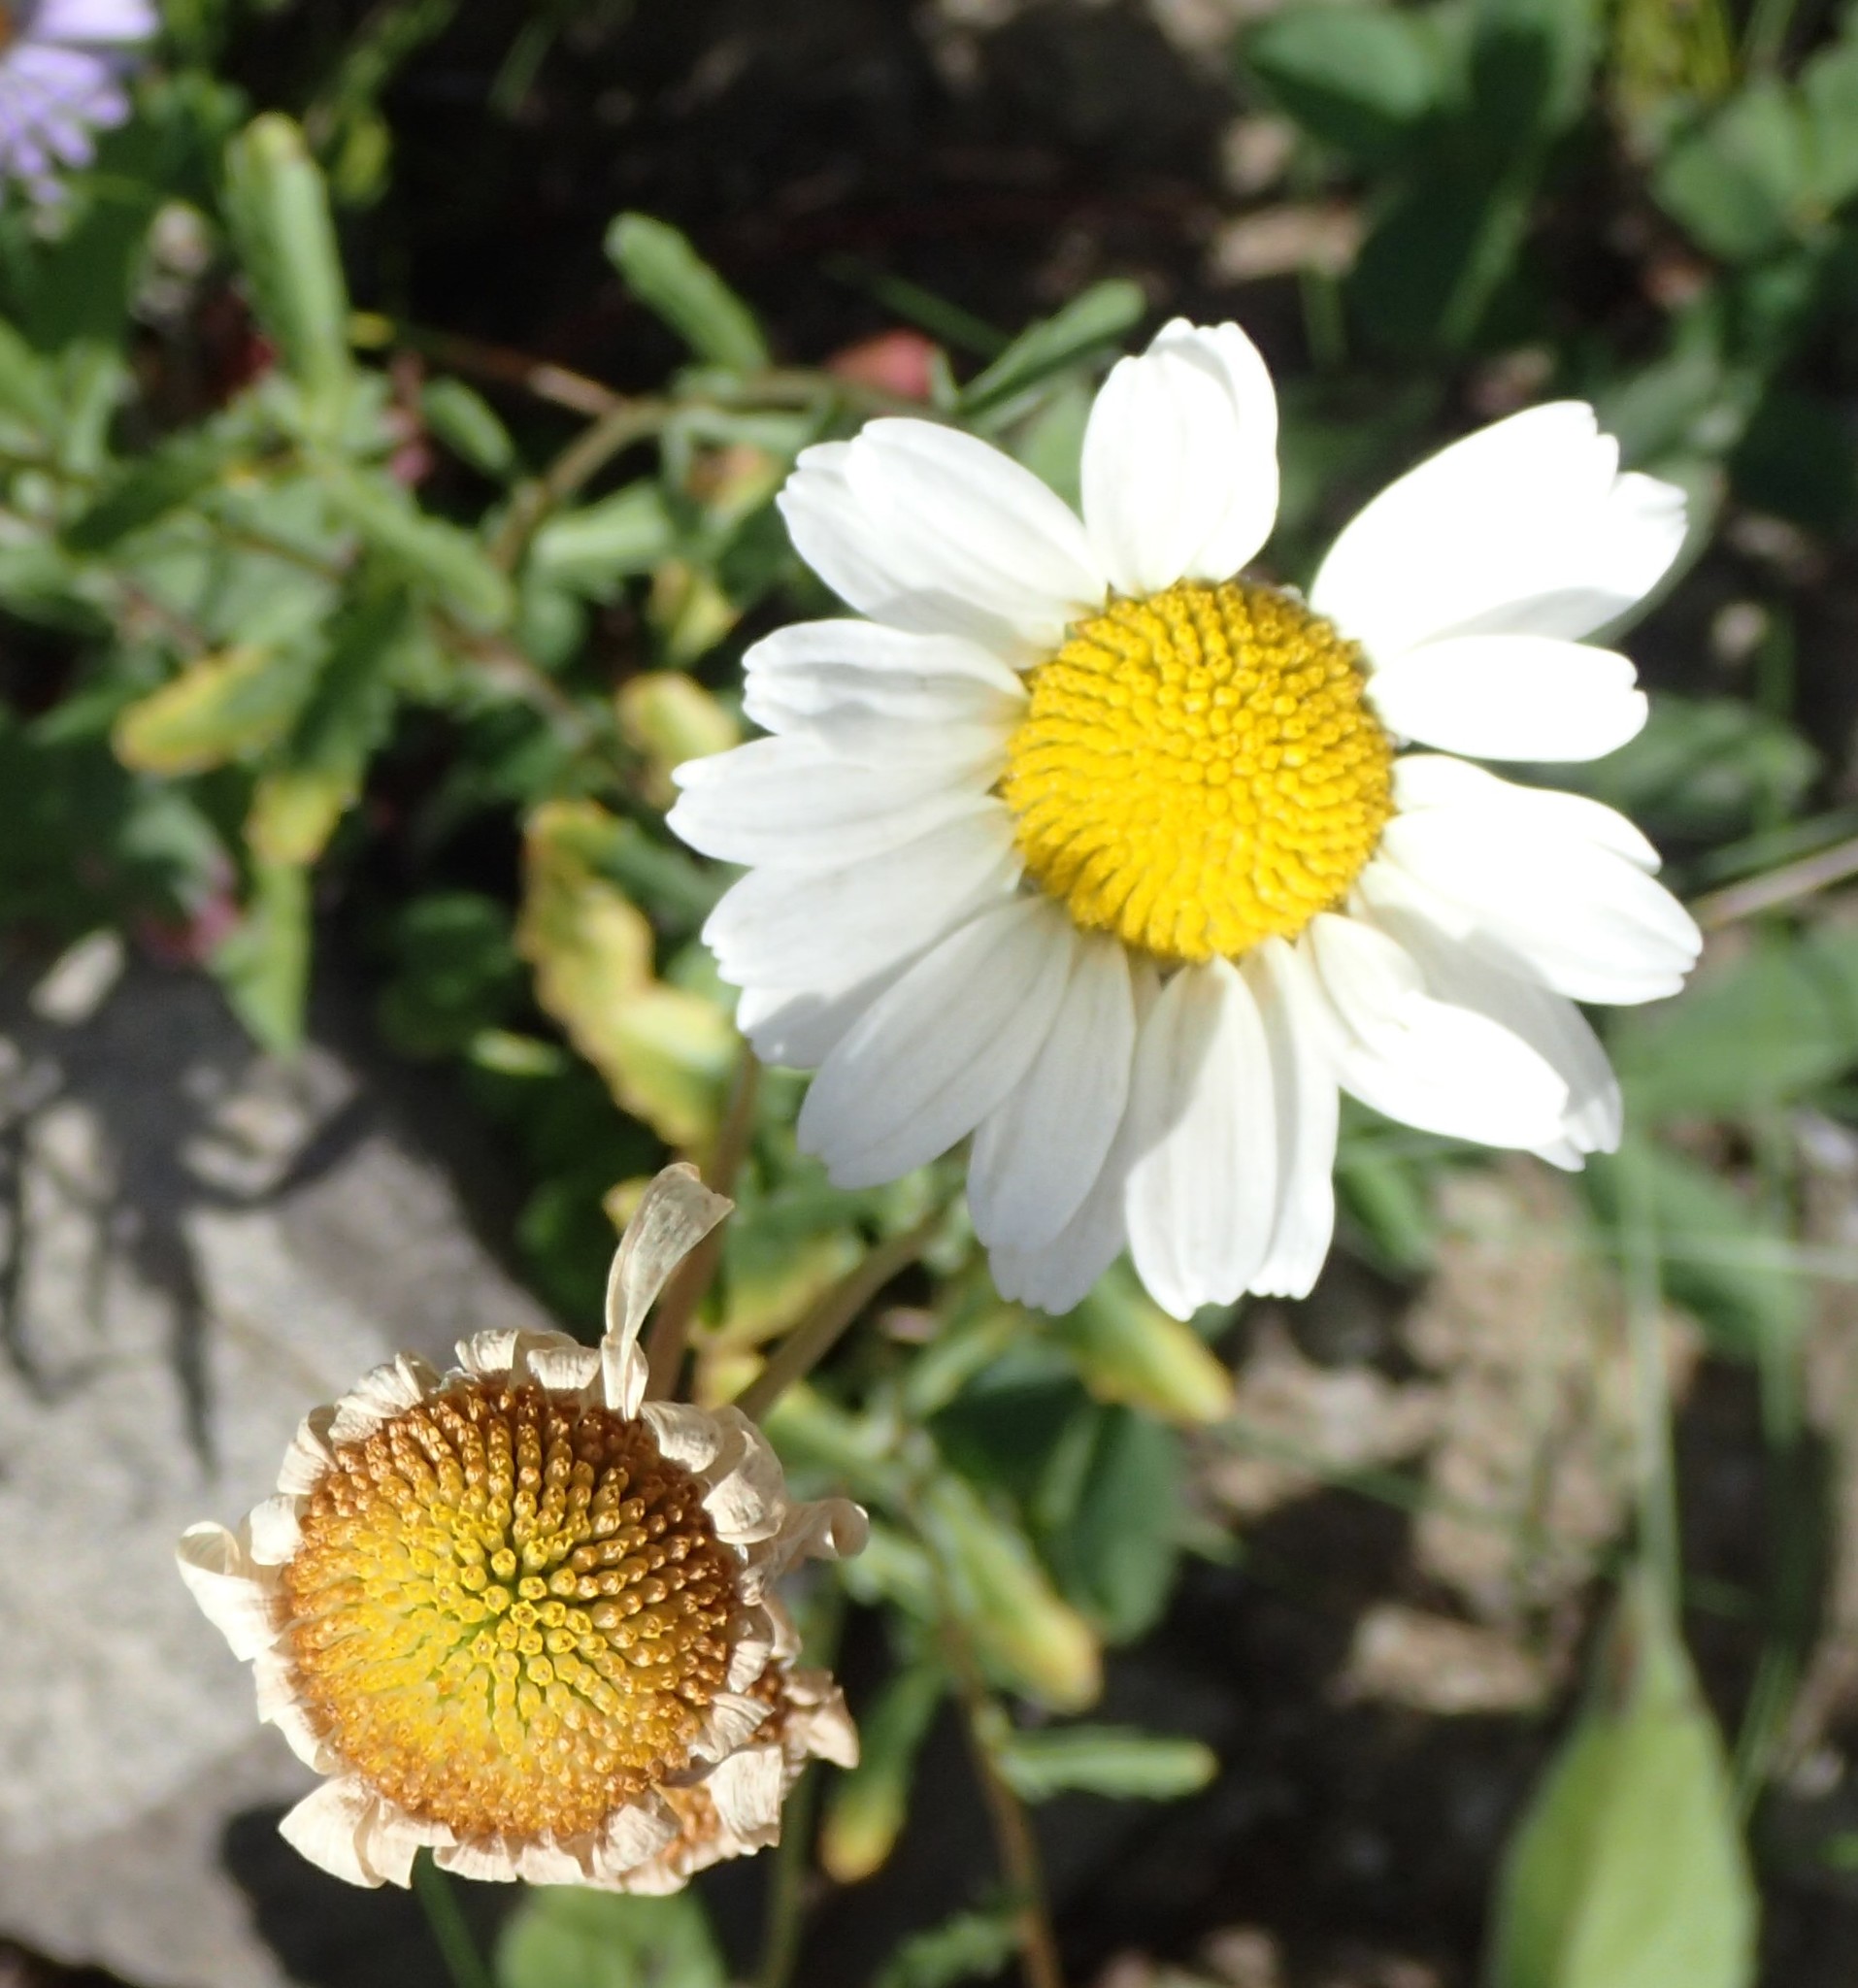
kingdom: Plantae
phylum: Tracheophyta
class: Magnoliopsida
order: Asterales
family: Asteraceae
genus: Leucanthemum
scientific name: Leucanthemum vulgare
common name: Oxeye daisy
